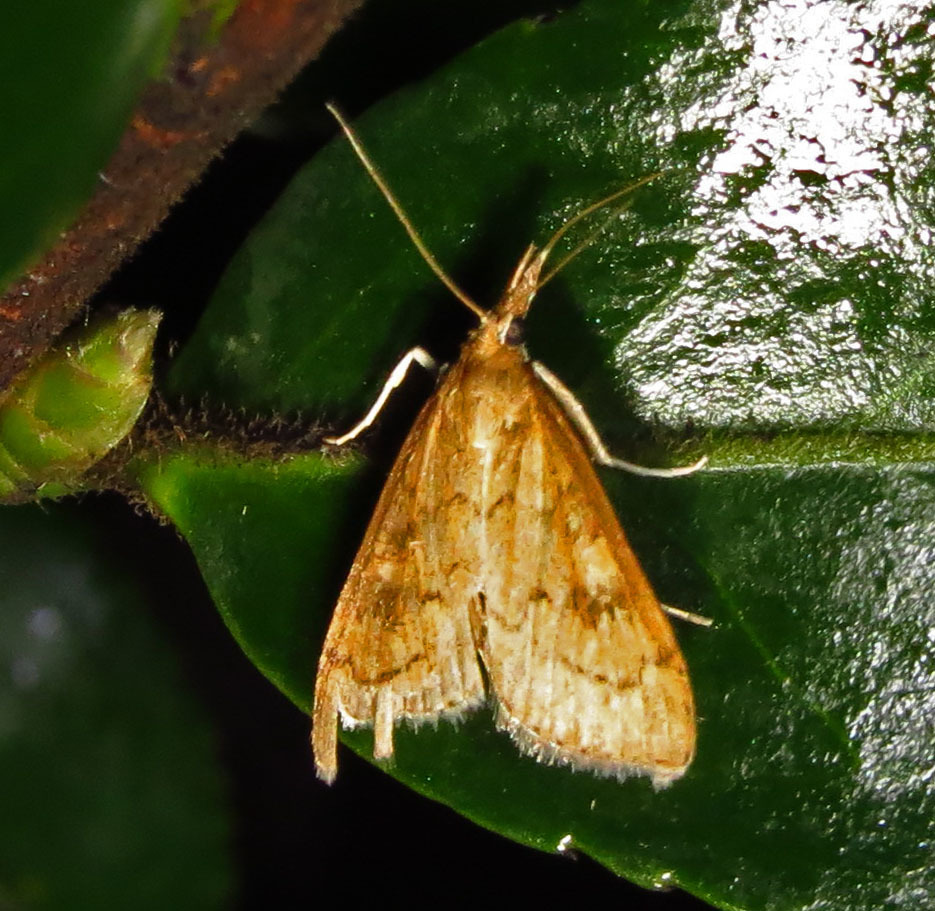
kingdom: Animalia
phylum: Arthropoda
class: Insecta
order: Lepidoptera
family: Crambidae
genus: Udea
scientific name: Udea rubigalis
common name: Celery leaftier moth
